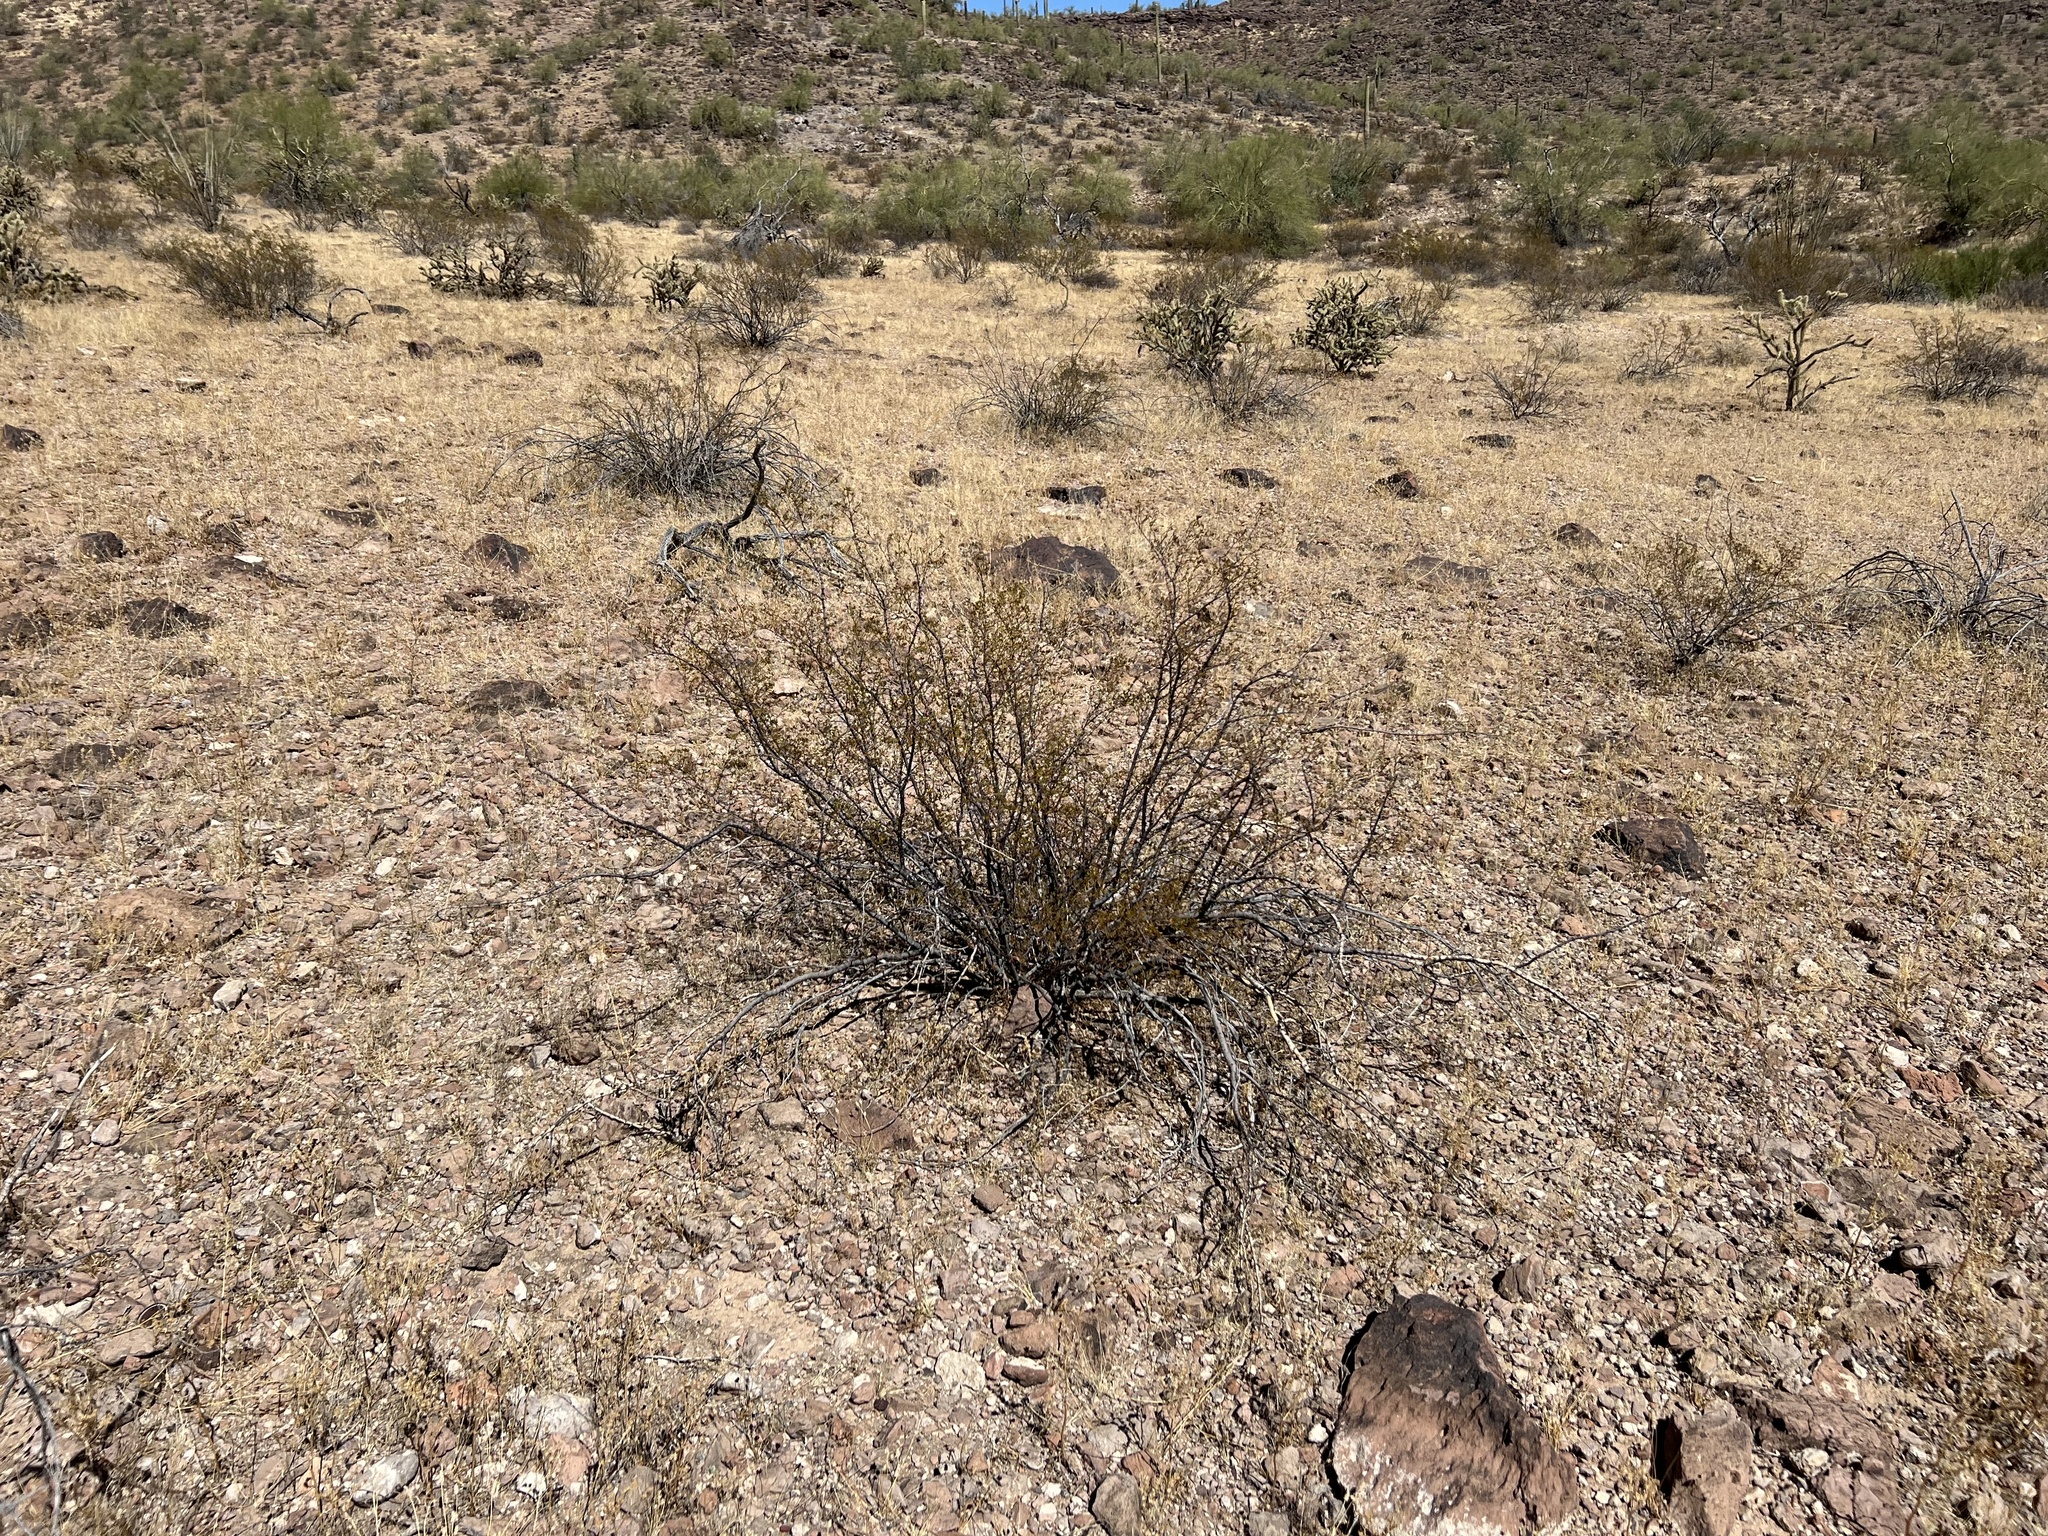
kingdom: Plantae
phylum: Tracheophyta
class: Magnoliopsida
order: Zygophyllales
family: Zygophyllaceae
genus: Larrea
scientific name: Larrea tridentata
